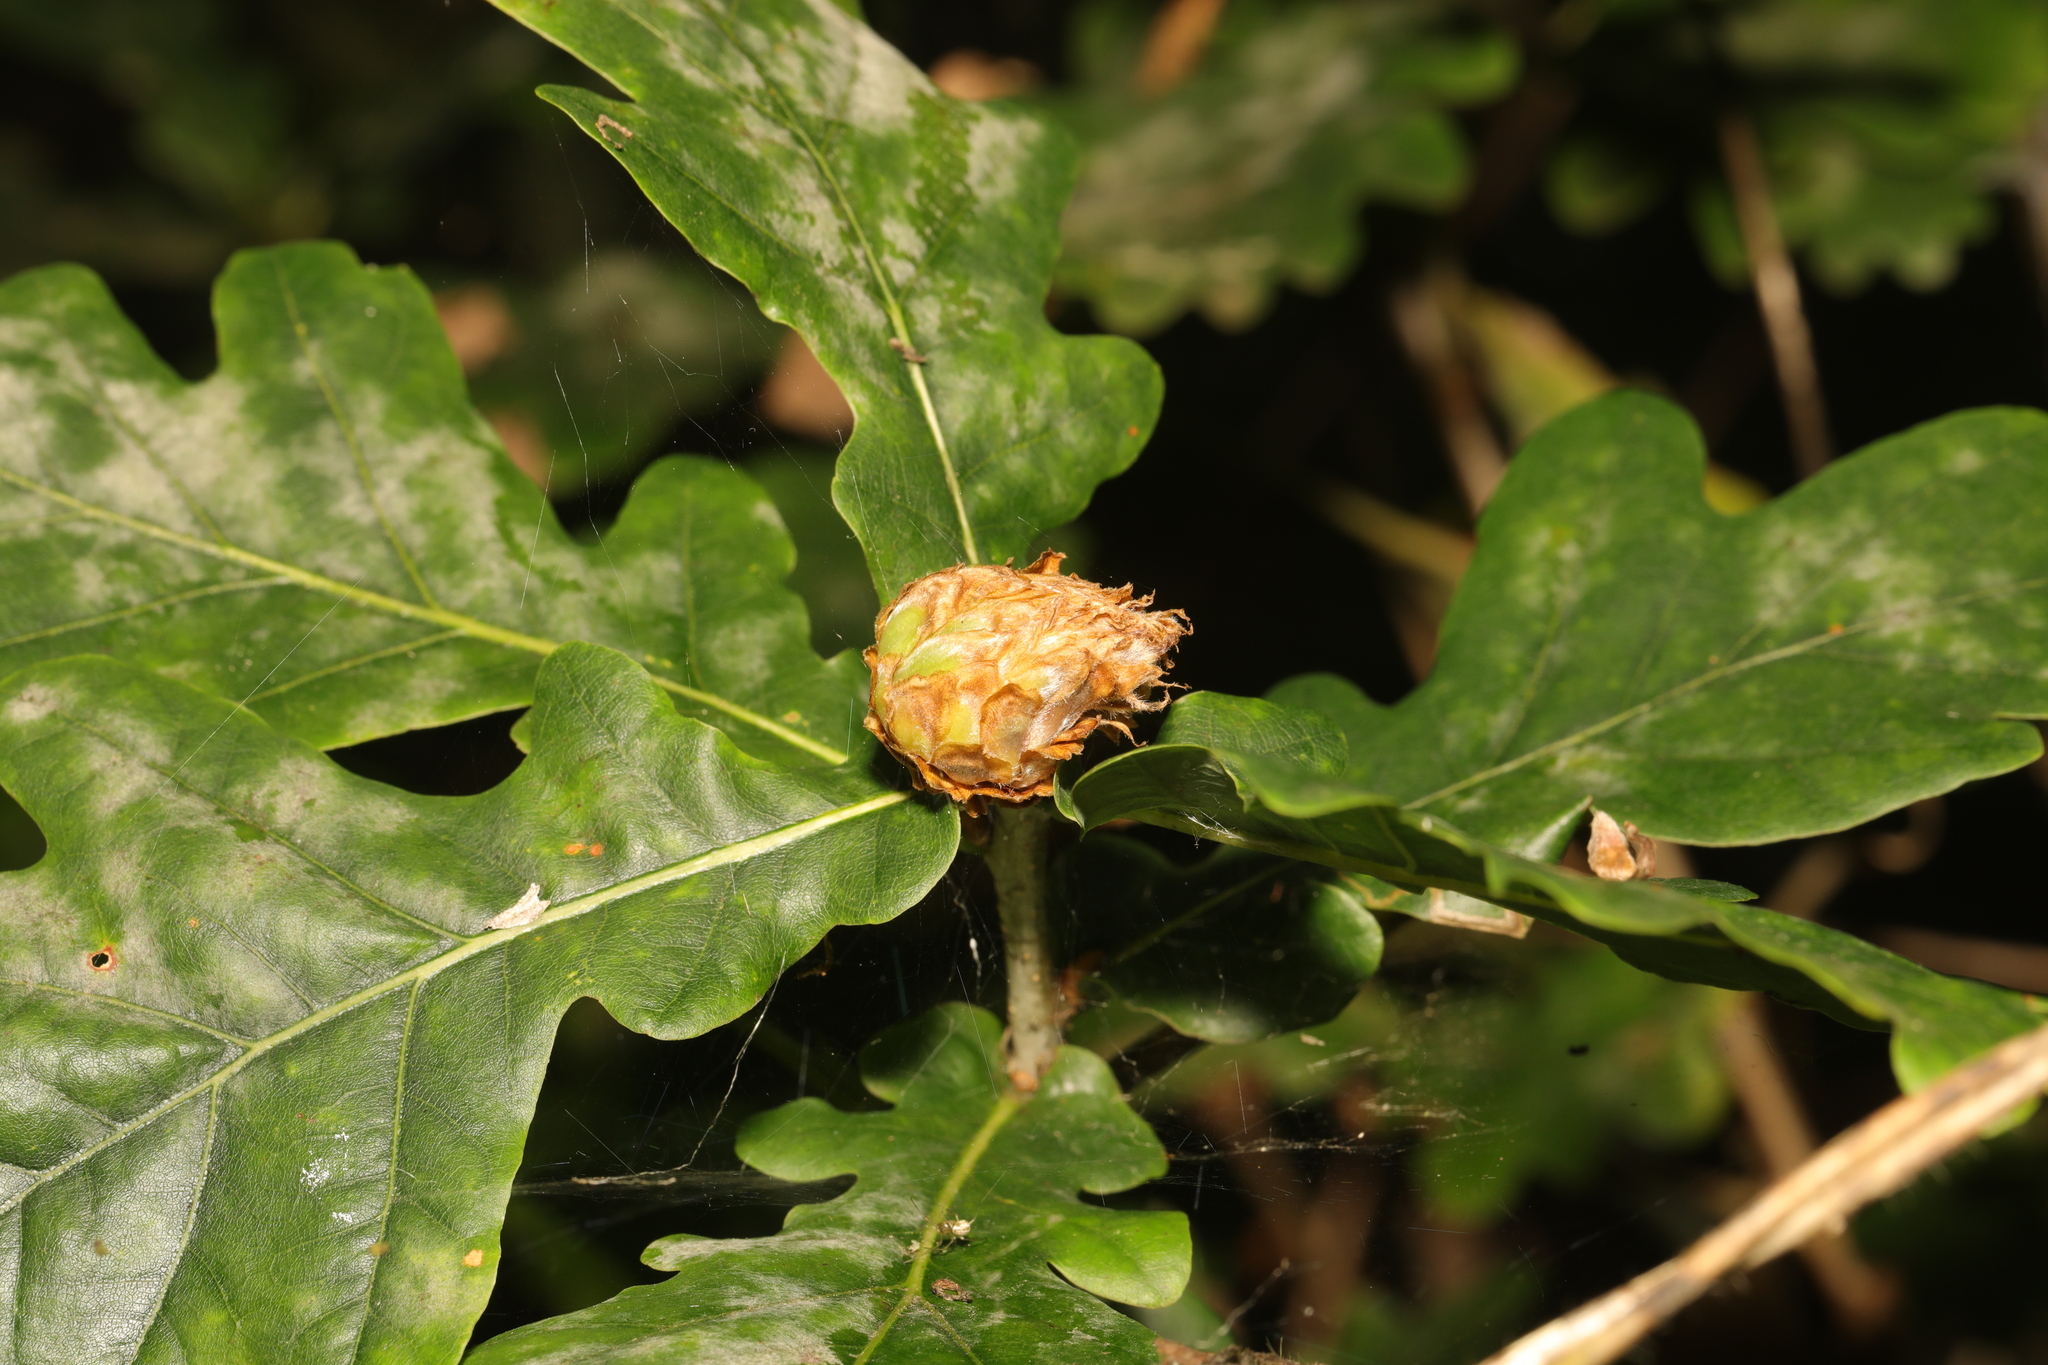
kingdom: Animalia
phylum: Arthropoda
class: Insecta
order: Hymenoptera
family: Cynipidae
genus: Andricus
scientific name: Andricus foecundatrix
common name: Artichoke gall
